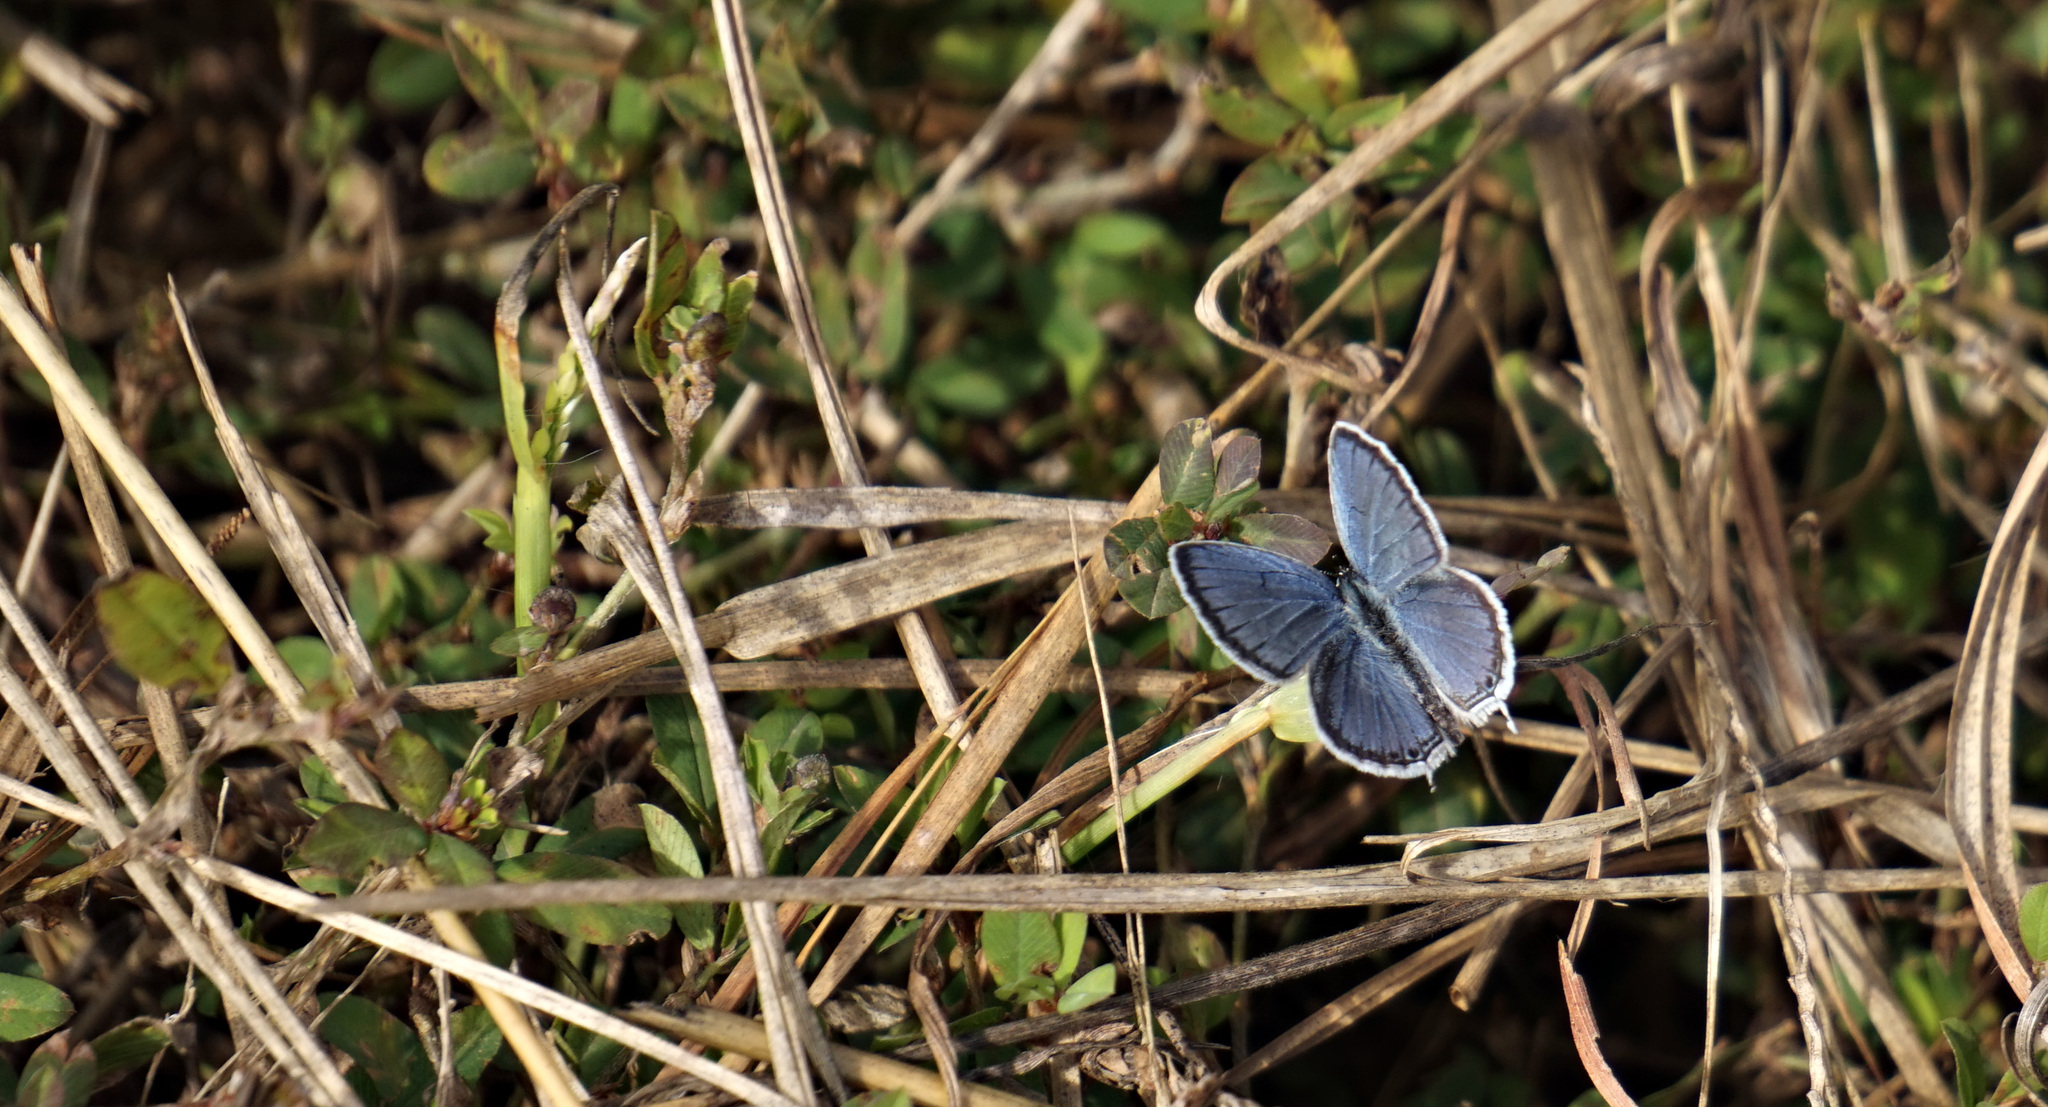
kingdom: Animalia
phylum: Arthropoda
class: Insecta
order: Lepidoptera
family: Lycaenidae
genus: Elkalyce
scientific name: Elkalyce comyntas
